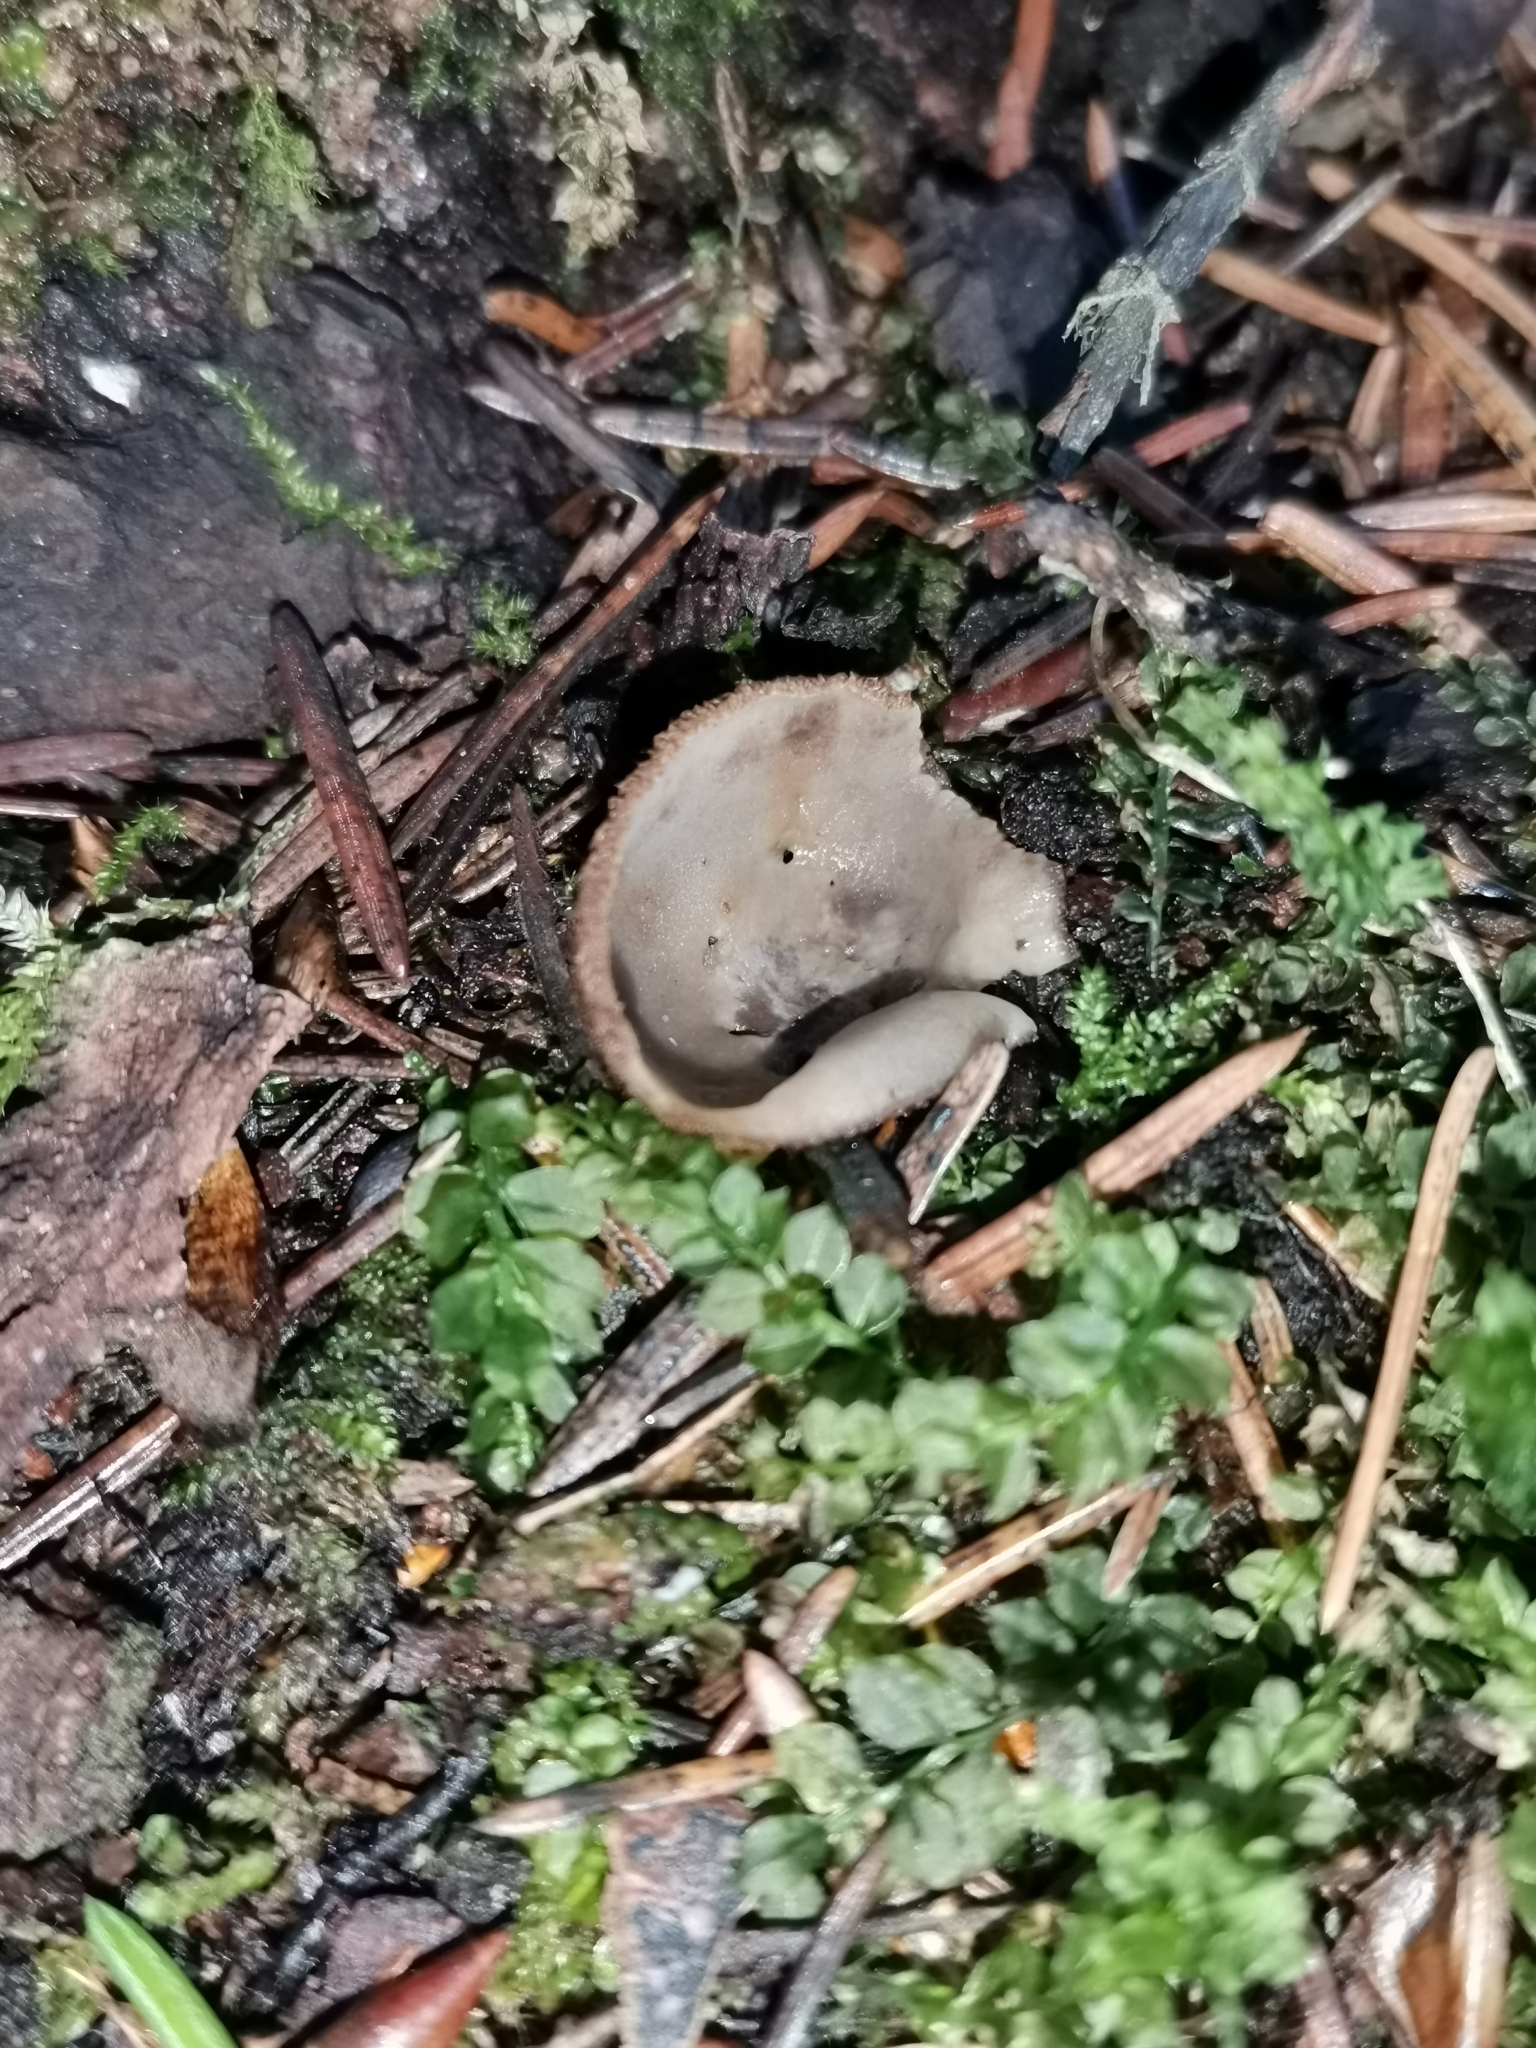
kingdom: Fungi
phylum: Ascomycota
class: Pezizomycetes
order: Pezizales
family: Pyronemataceae
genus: Humaria
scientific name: Humaria hemisphaerica
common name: Glazed cup
